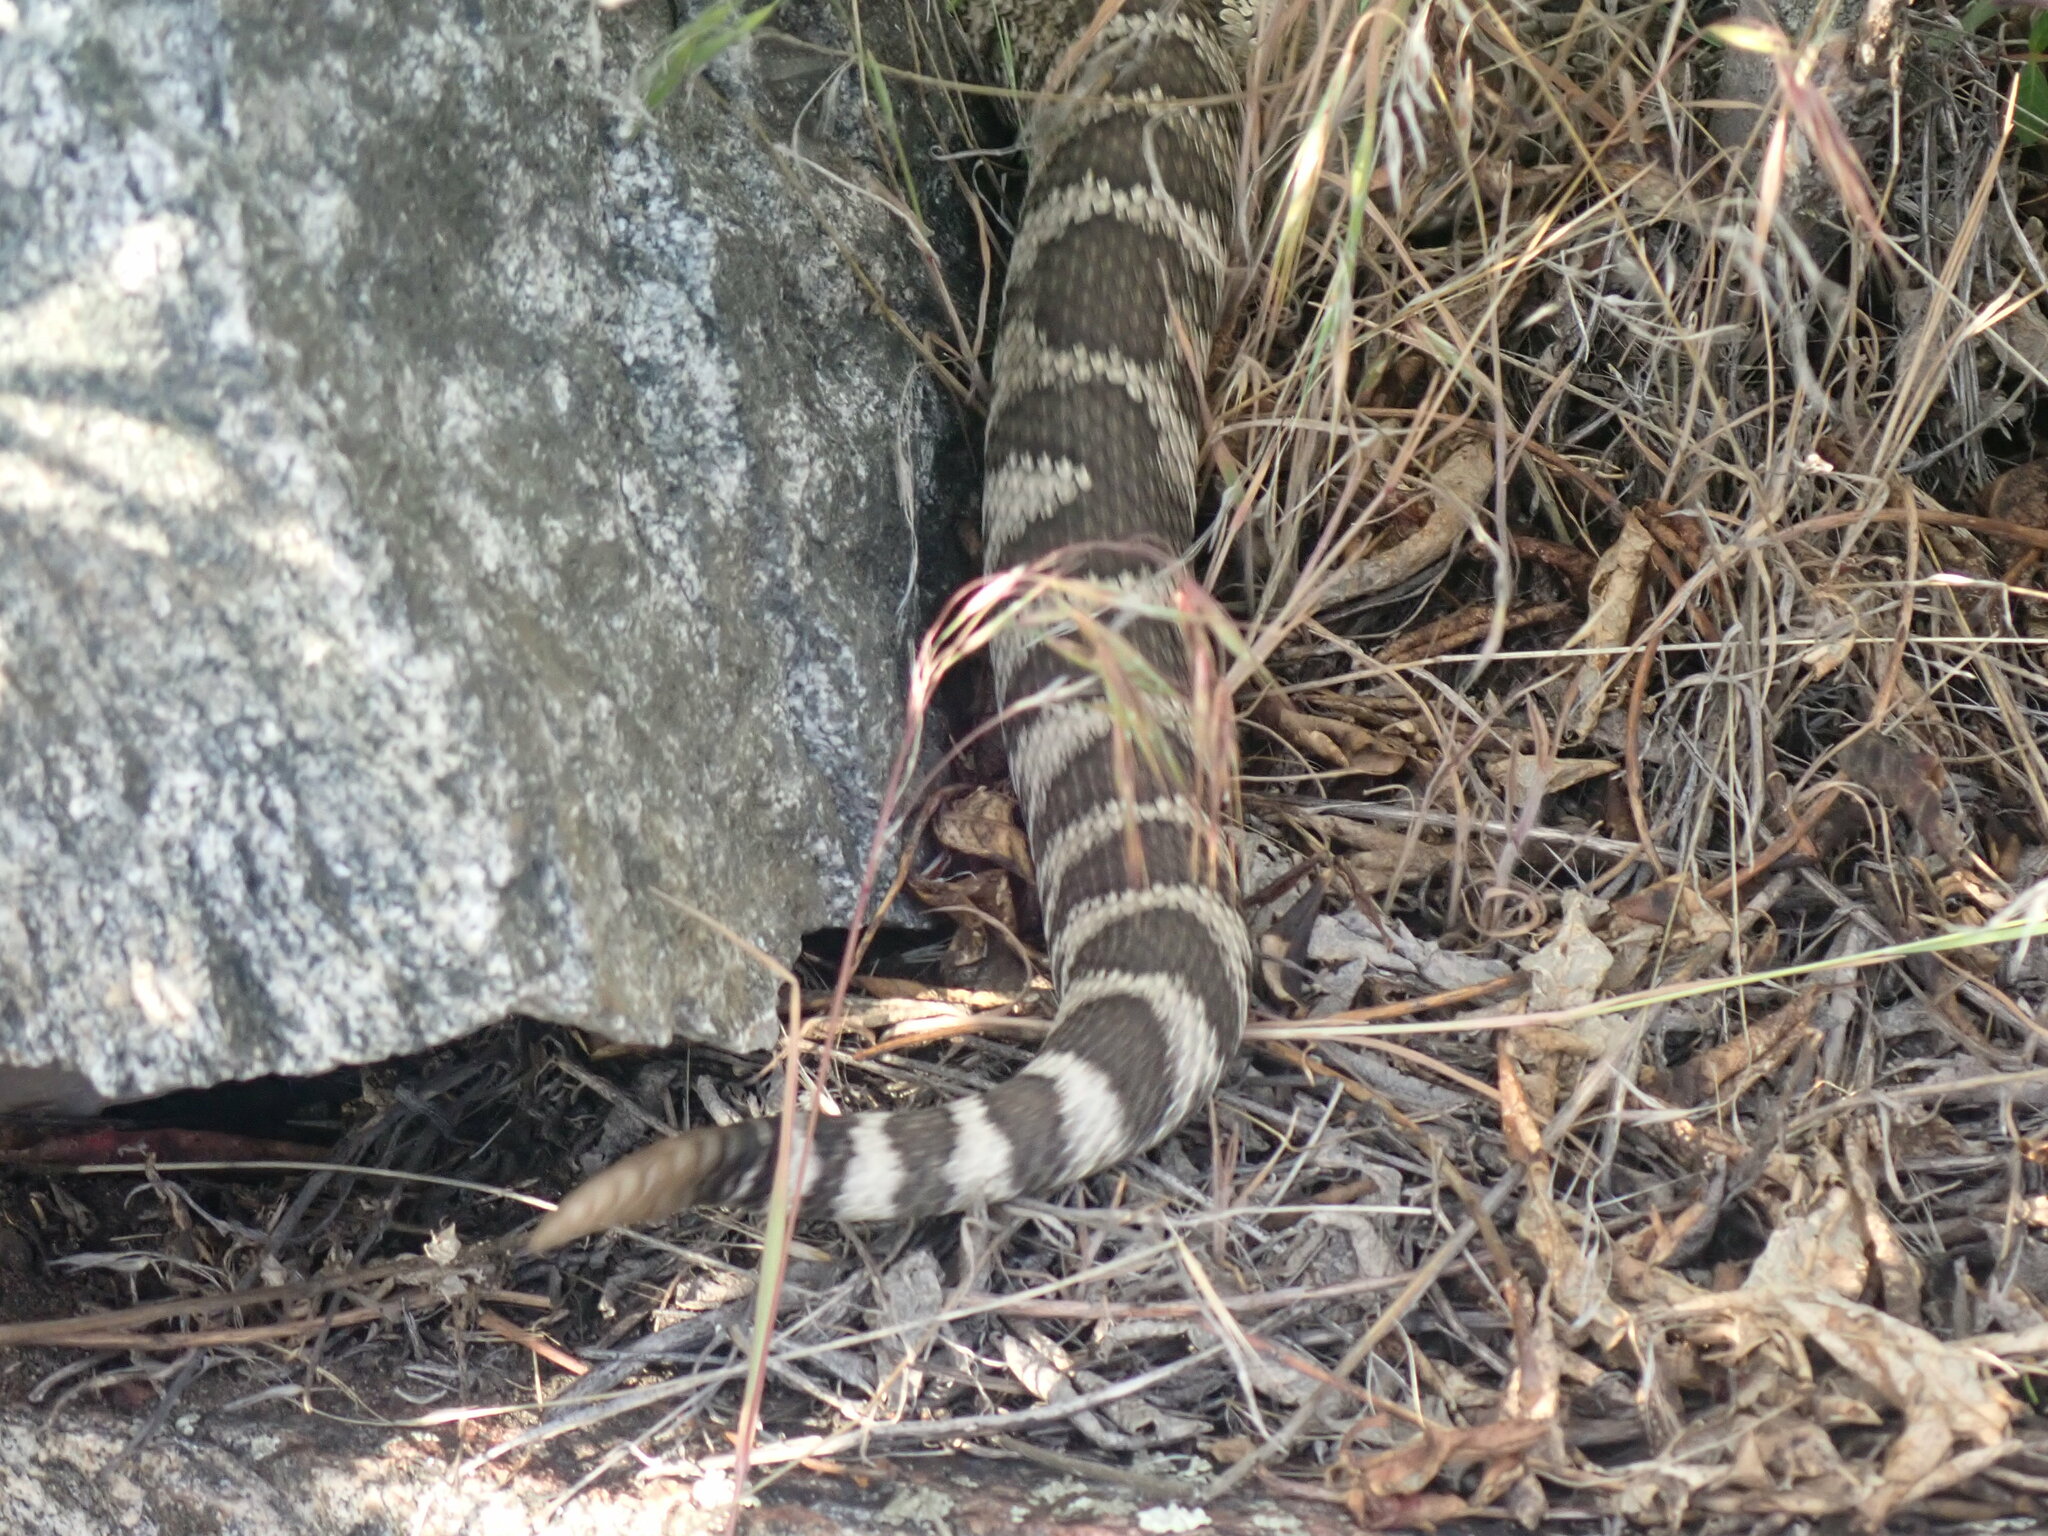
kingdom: Animalia
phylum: Chordata
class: Squamata
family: Viperidae
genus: Crotalus
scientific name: Crotalus oreganus
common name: Abyssus
